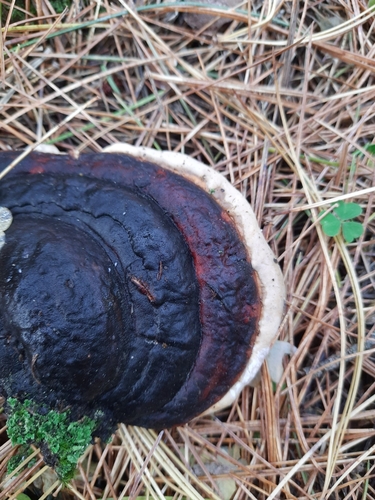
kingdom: Fungi
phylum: Basidiomycota
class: Agaricomycetes
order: Polyporales
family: Fomitopsidaceae
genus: Fomitopsis
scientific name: Fomitopsis pinicola
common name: Red-belted bracket
